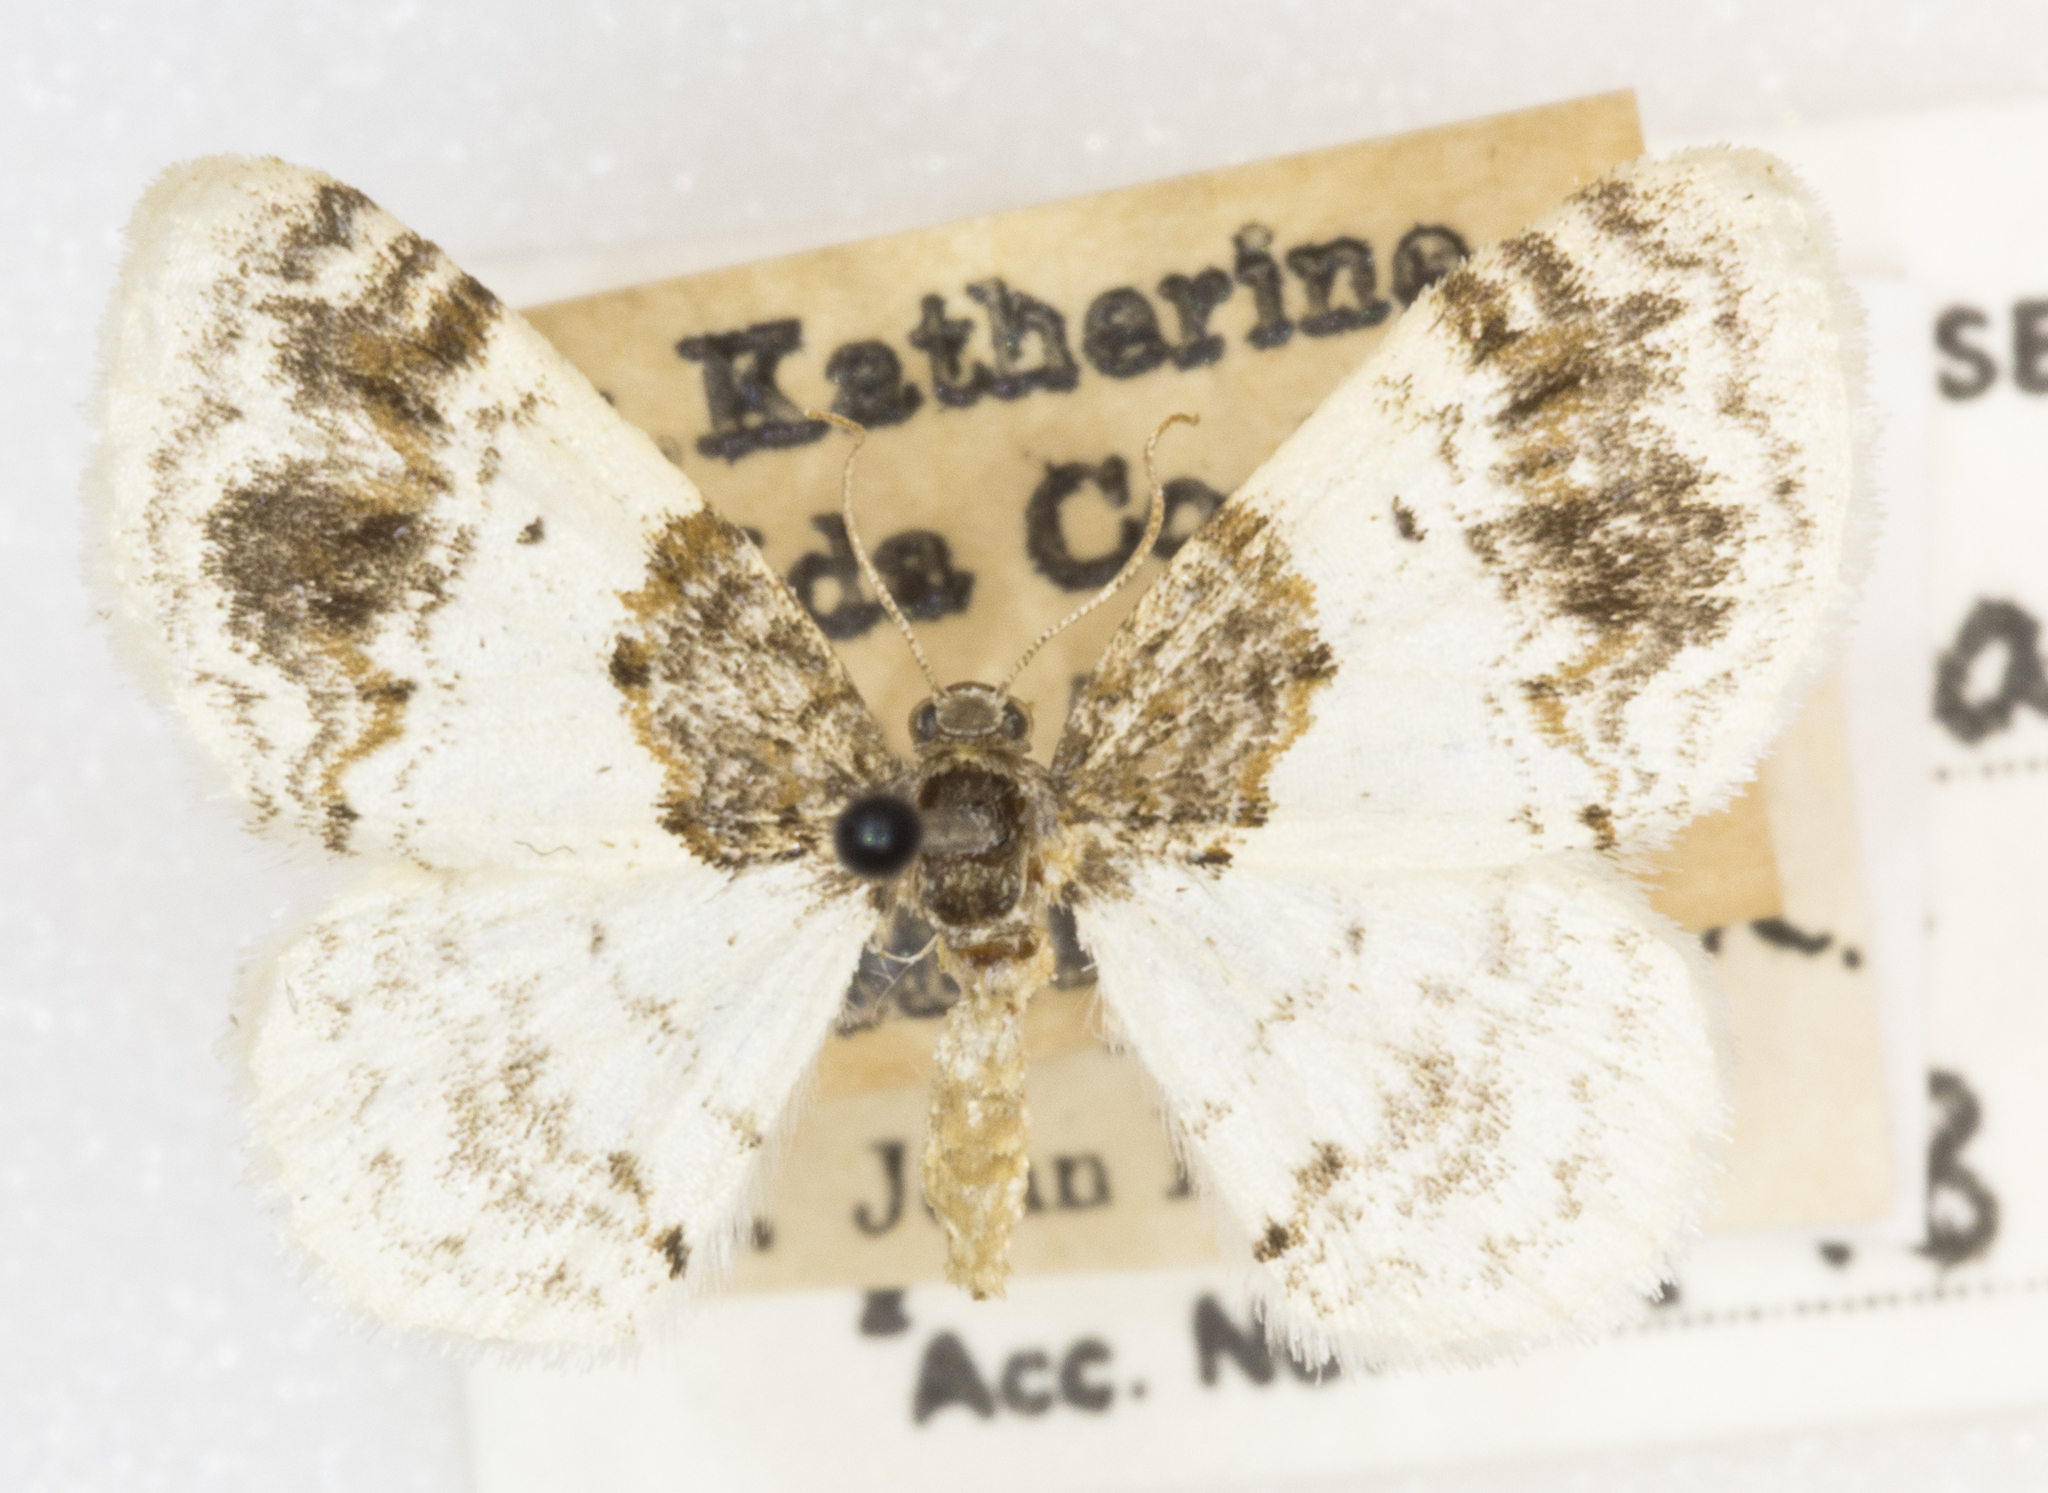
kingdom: Animalia
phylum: Arthropoda
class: Insecta
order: Lepidoptera
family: Geometridae
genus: Hydrelia
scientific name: Hydrelia condensata
